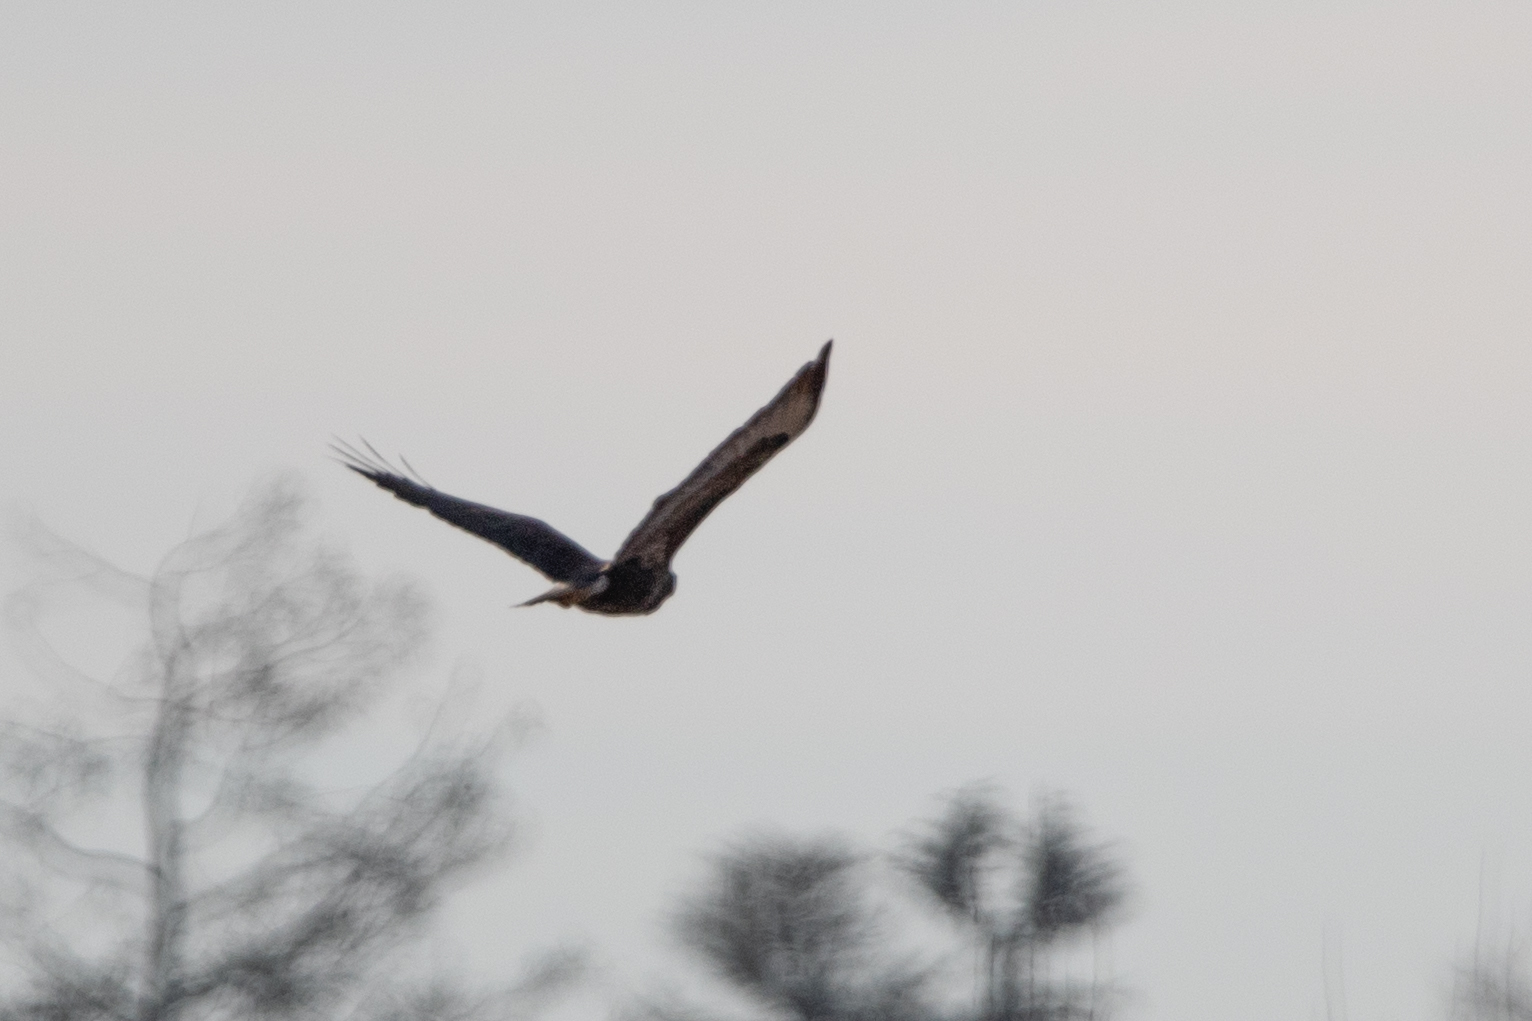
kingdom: Animalia
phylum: Chordata
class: Aves
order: Accipitriformes
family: Accipitridae
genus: Buteo
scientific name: Buteo buteo
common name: Common buzzard
